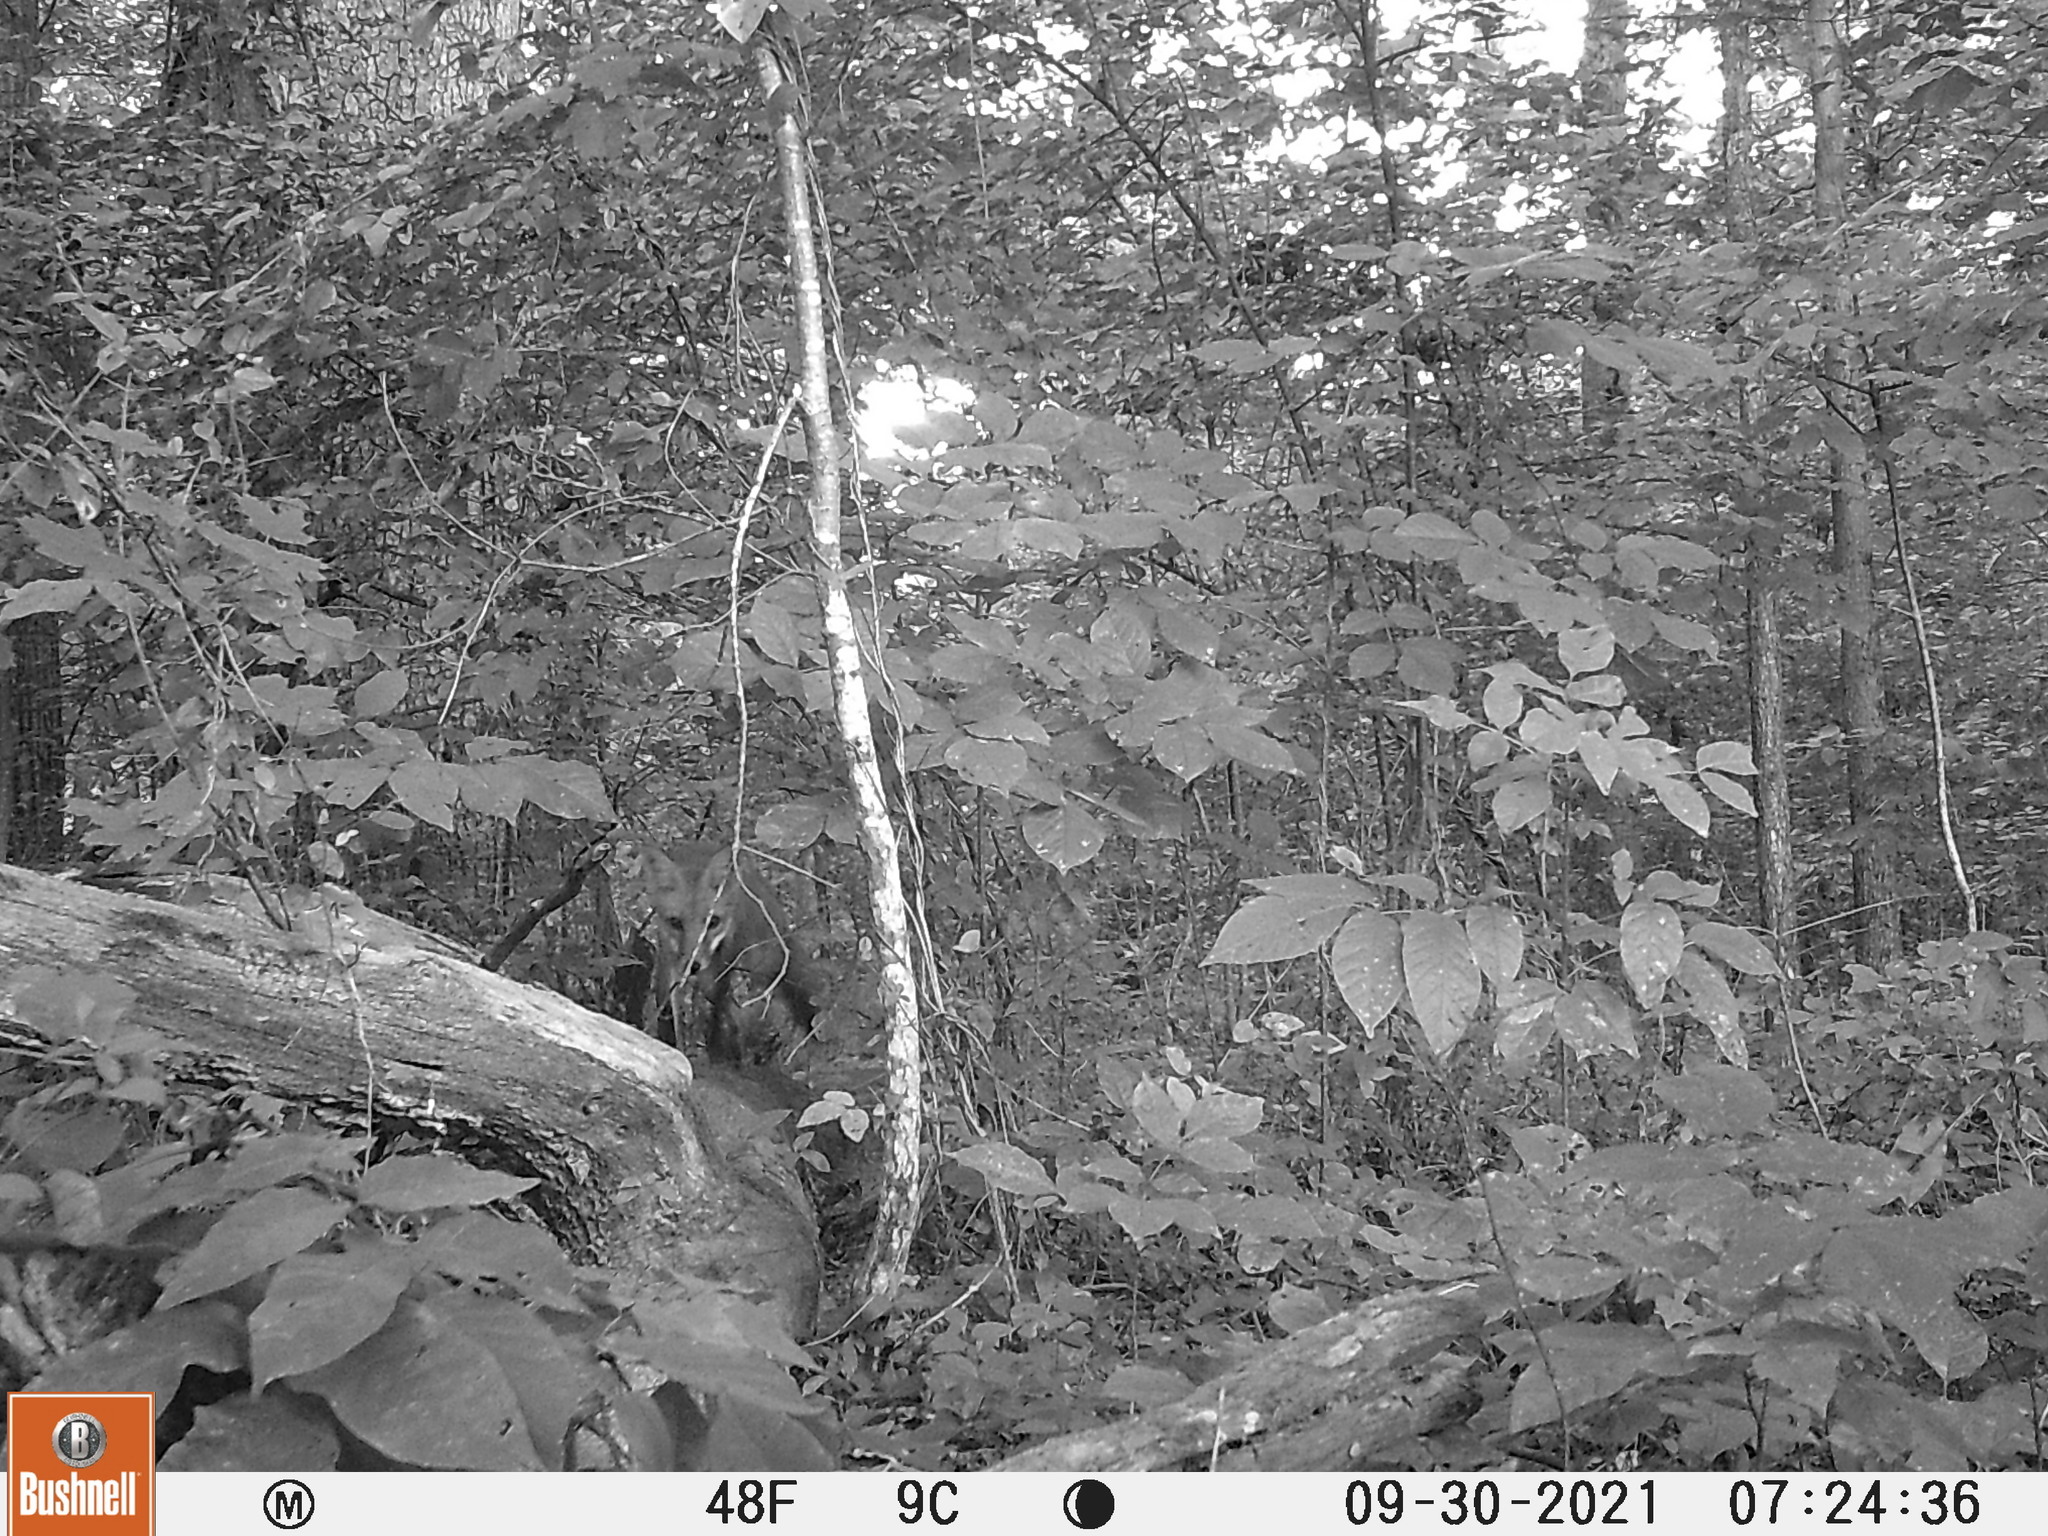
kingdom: Animalia
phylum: Chordata
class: Mammalia
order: Carnivora
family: Canidae
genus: Vulpes
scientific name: Vulpes vulpes
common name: Red fox
